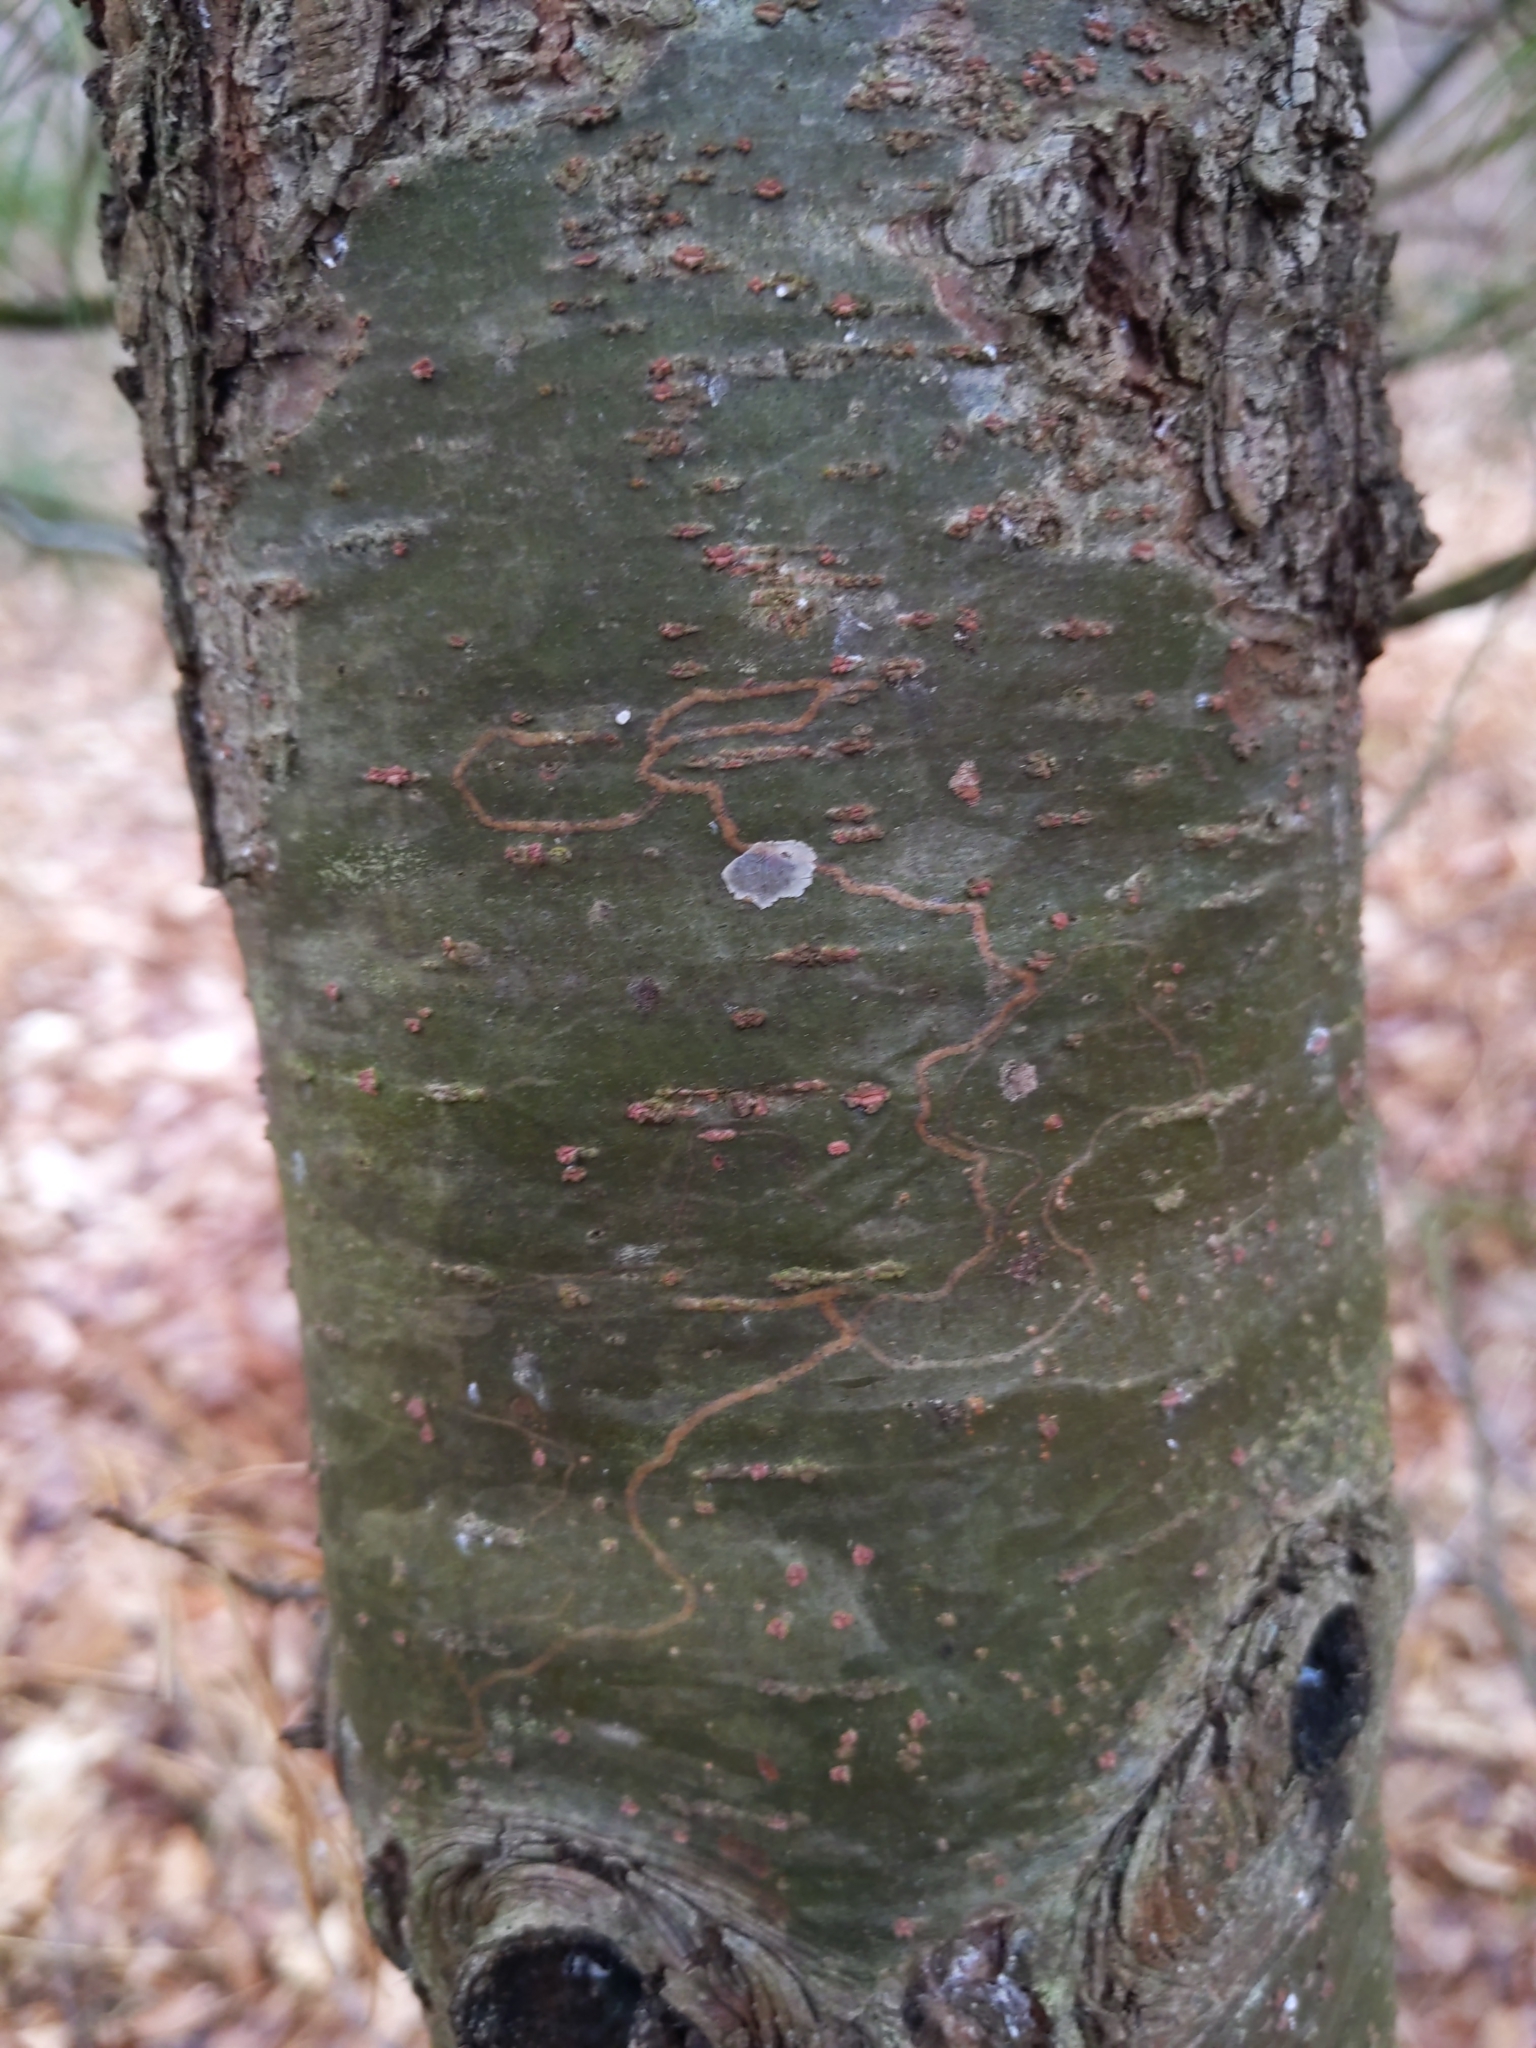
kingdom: Animalia
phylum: Arthropoda
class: Insecta
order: Lepidoptera
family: Gracillariidae
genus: Marmara
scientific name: Marmara fasciella
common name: White pine barkminer moth
